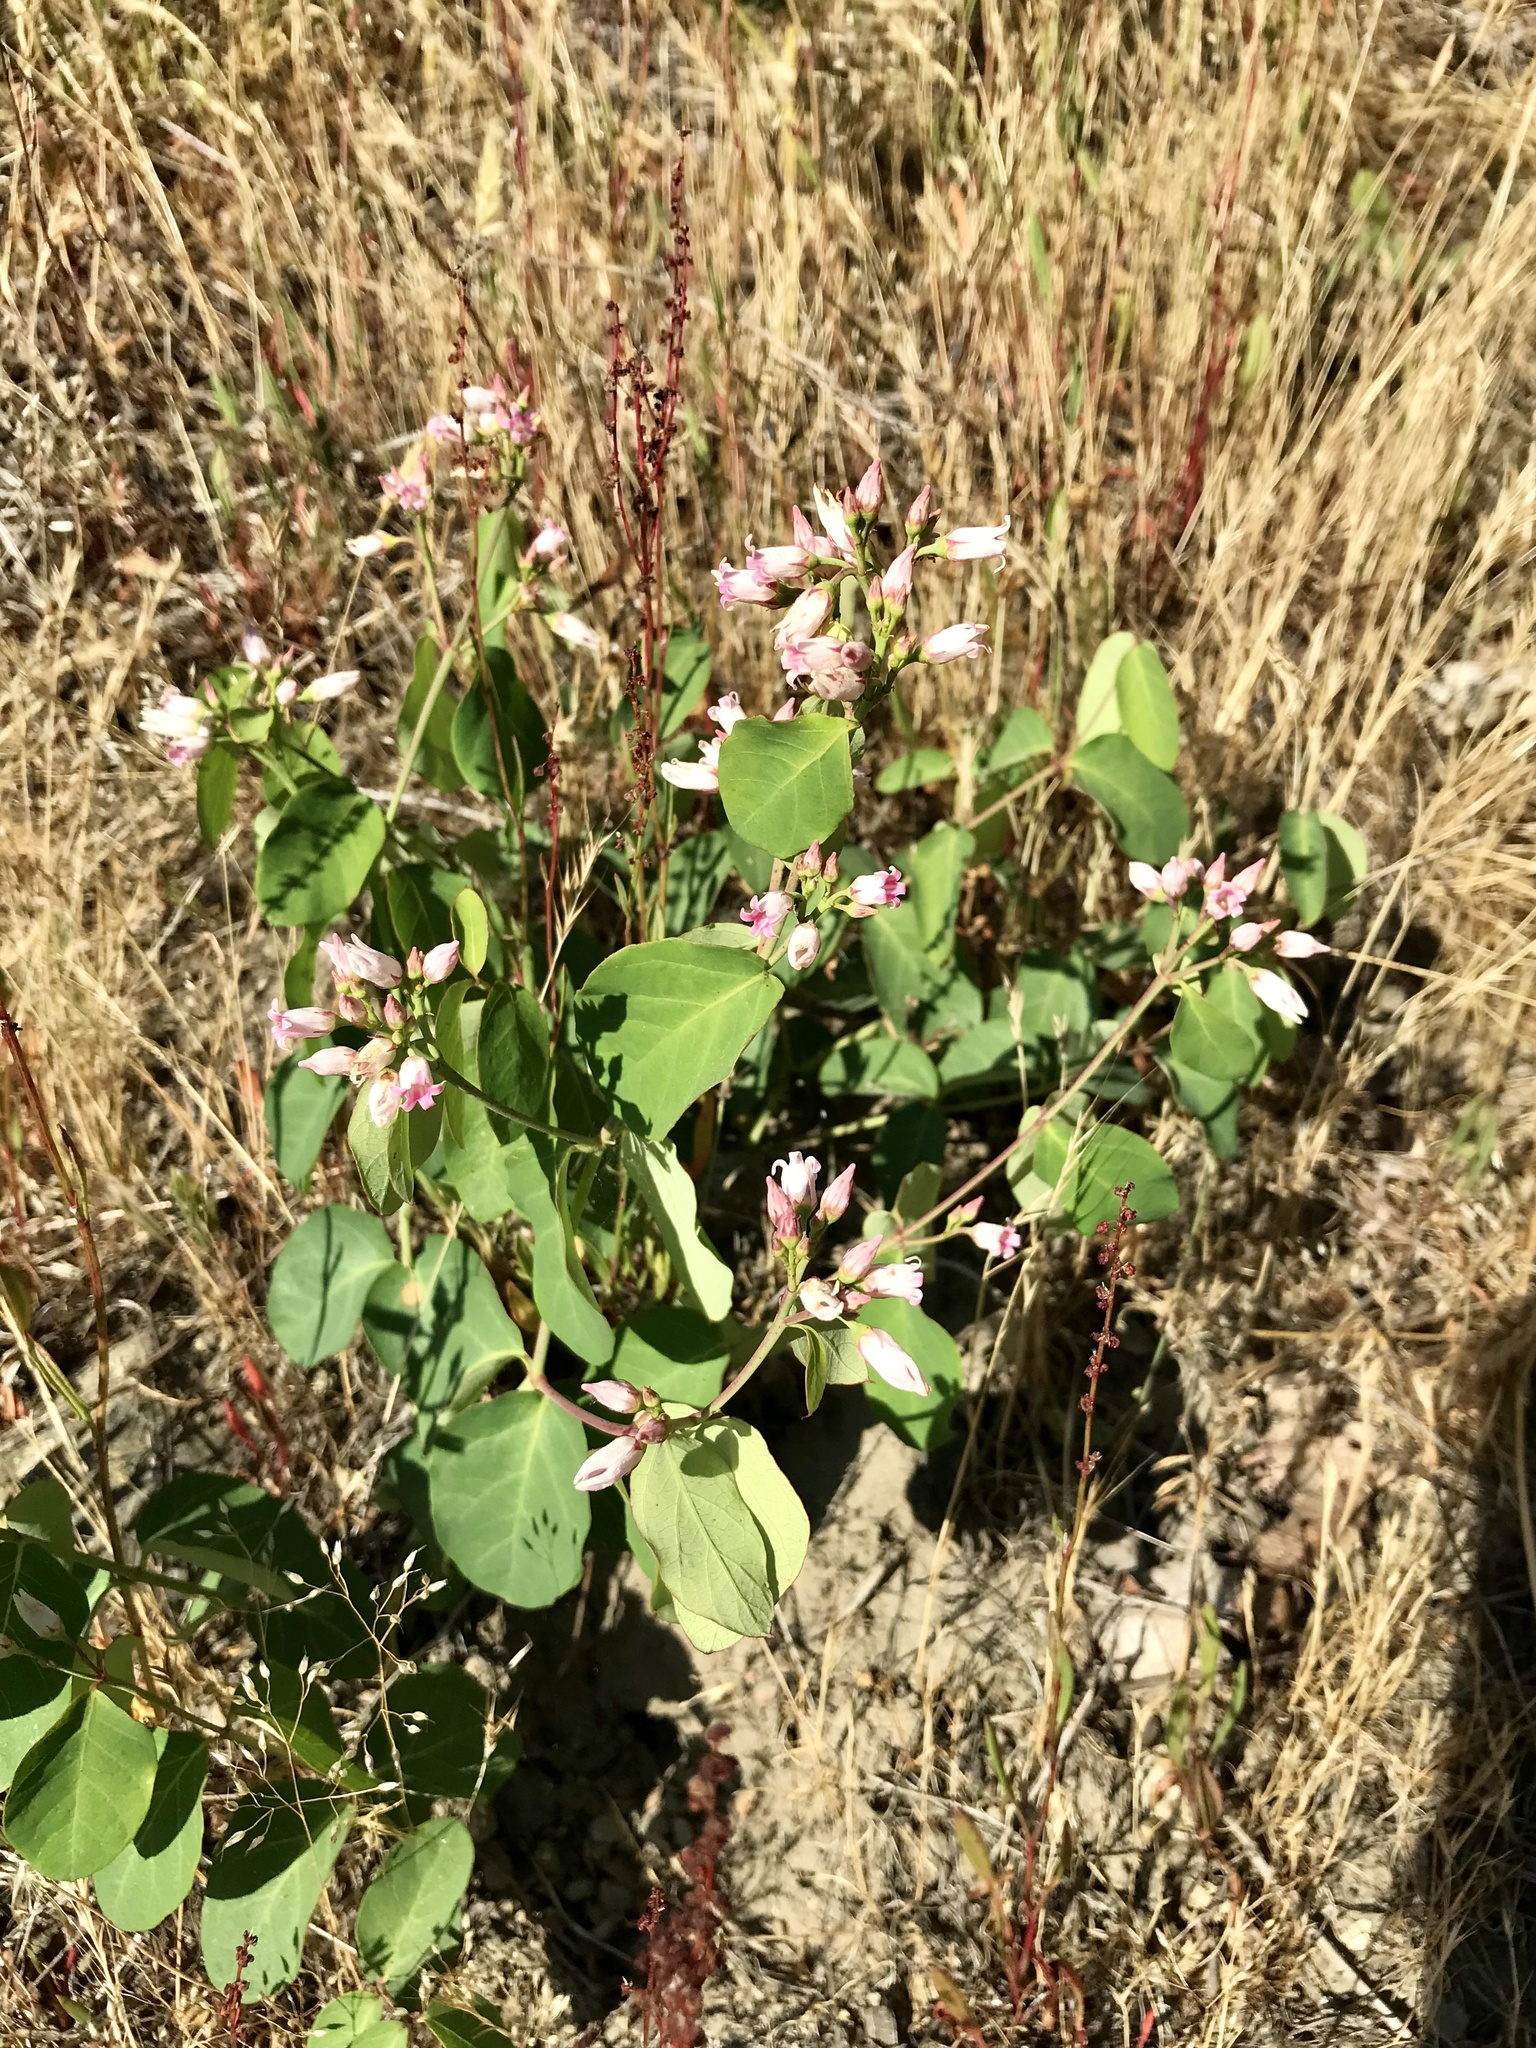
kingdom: Plantae
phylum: Tracheophyta
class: Magnoliopsida
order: Gentianales
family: Apocynaceae
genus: Apocynum
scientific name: Apocynum androsaemifolium
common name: Spreading dogbane
